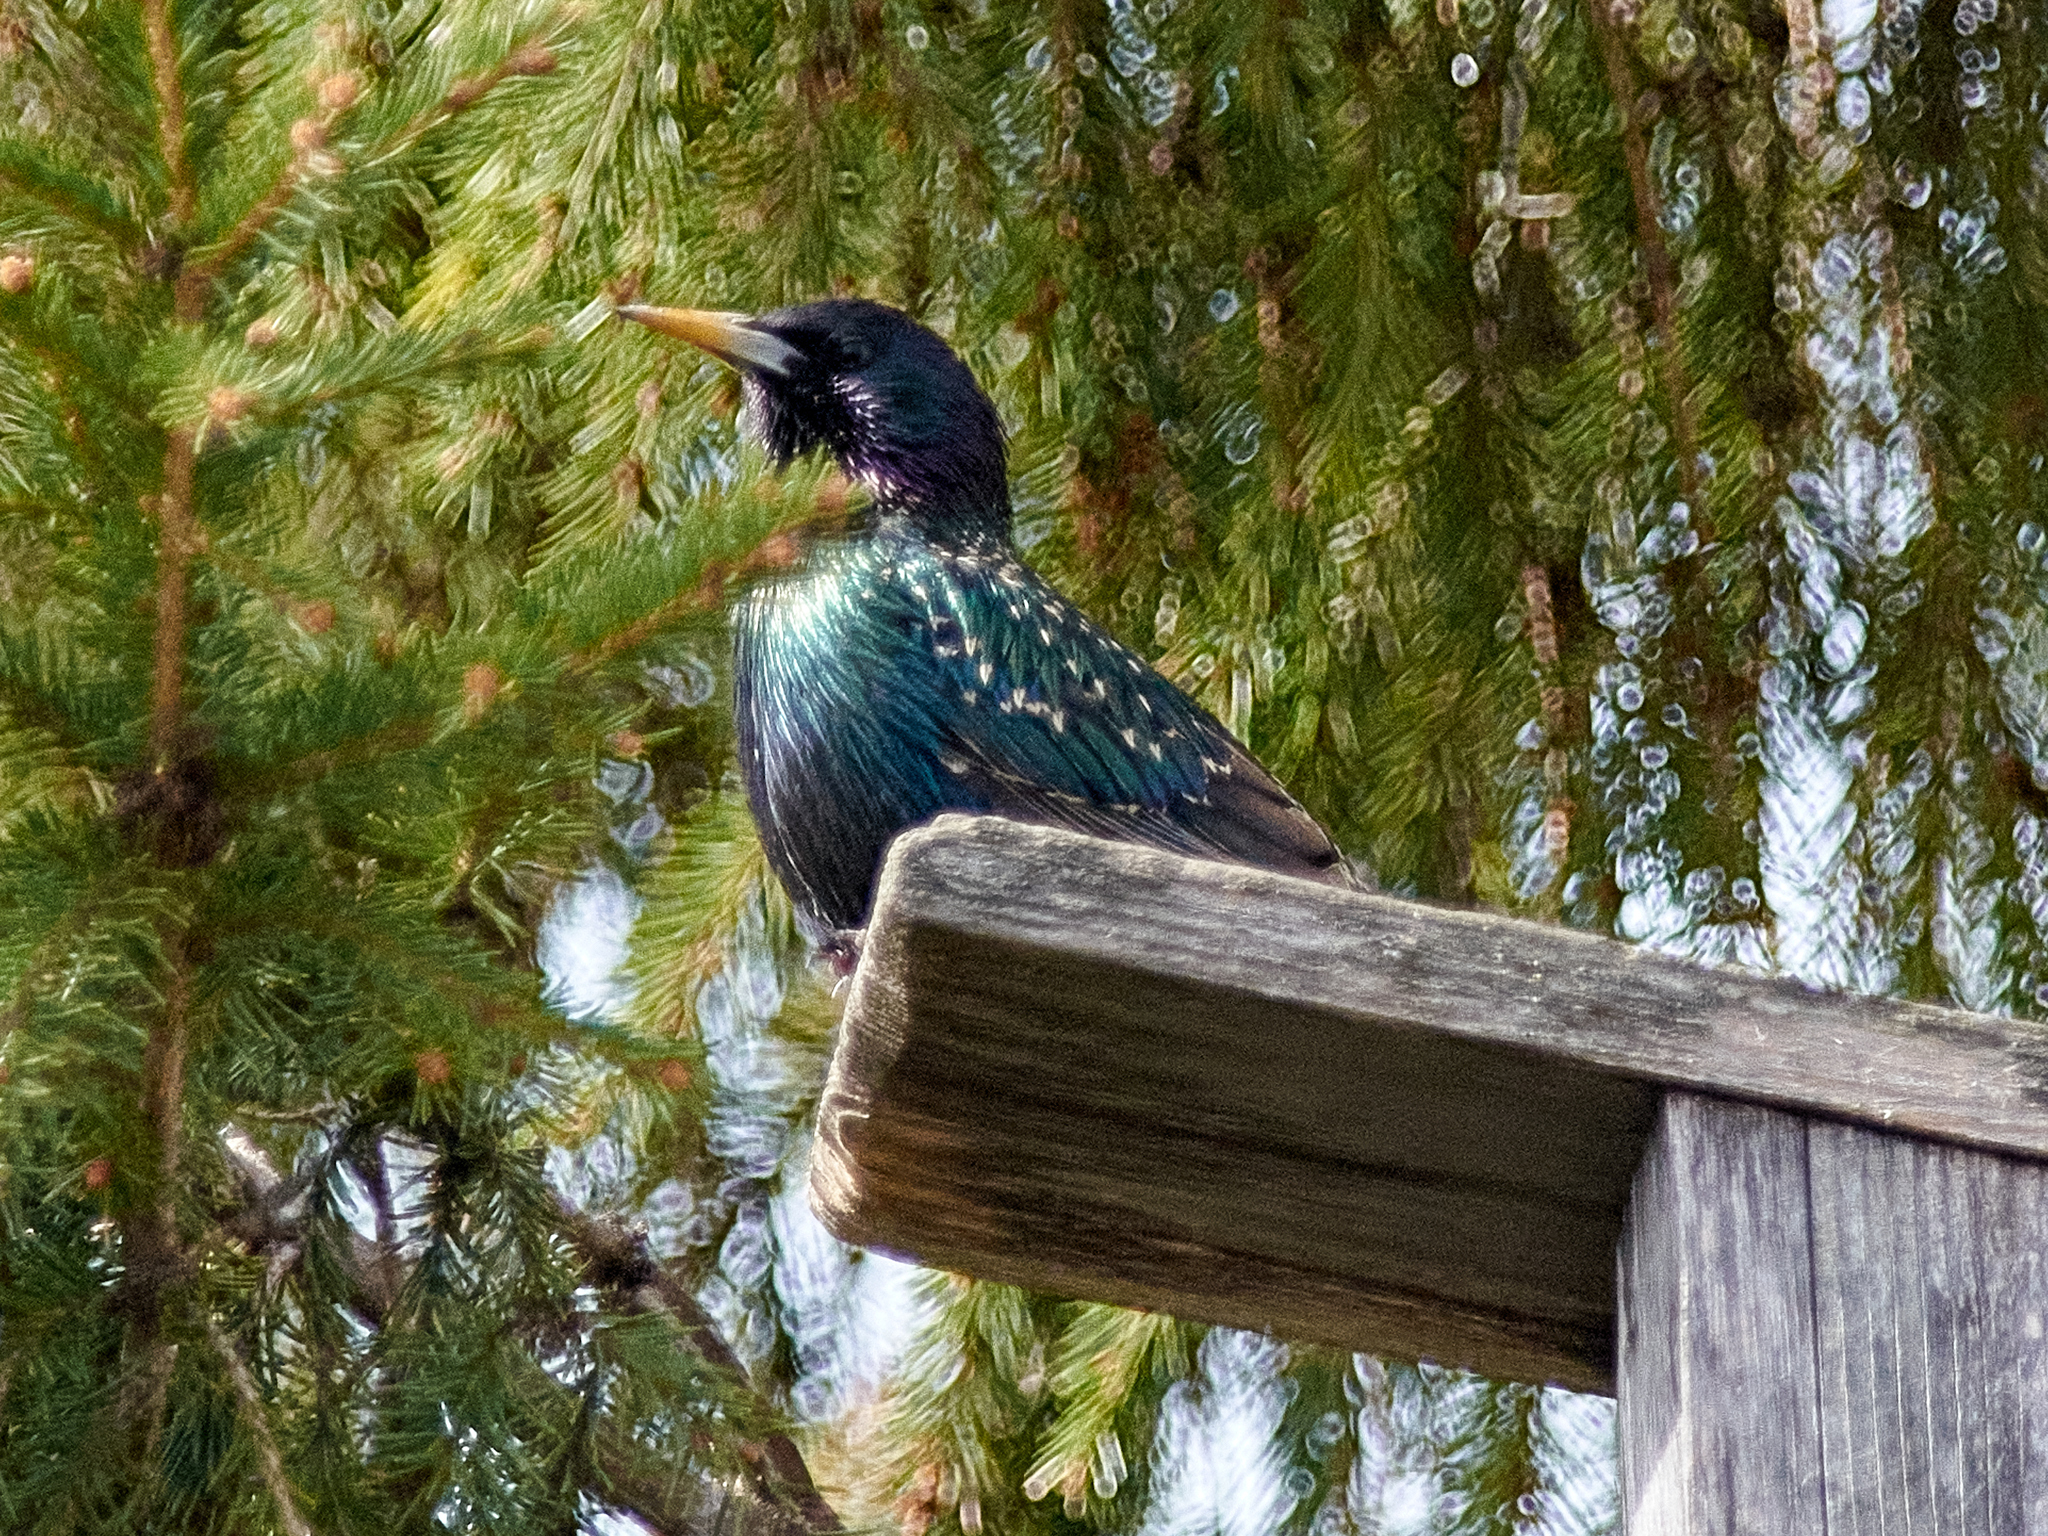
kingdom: Animalia
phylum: Chordata
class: Aves
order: Passeriformes
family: Sturnidae
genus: Sturnus
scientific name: Sturnus vulgaris
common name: Common starling
